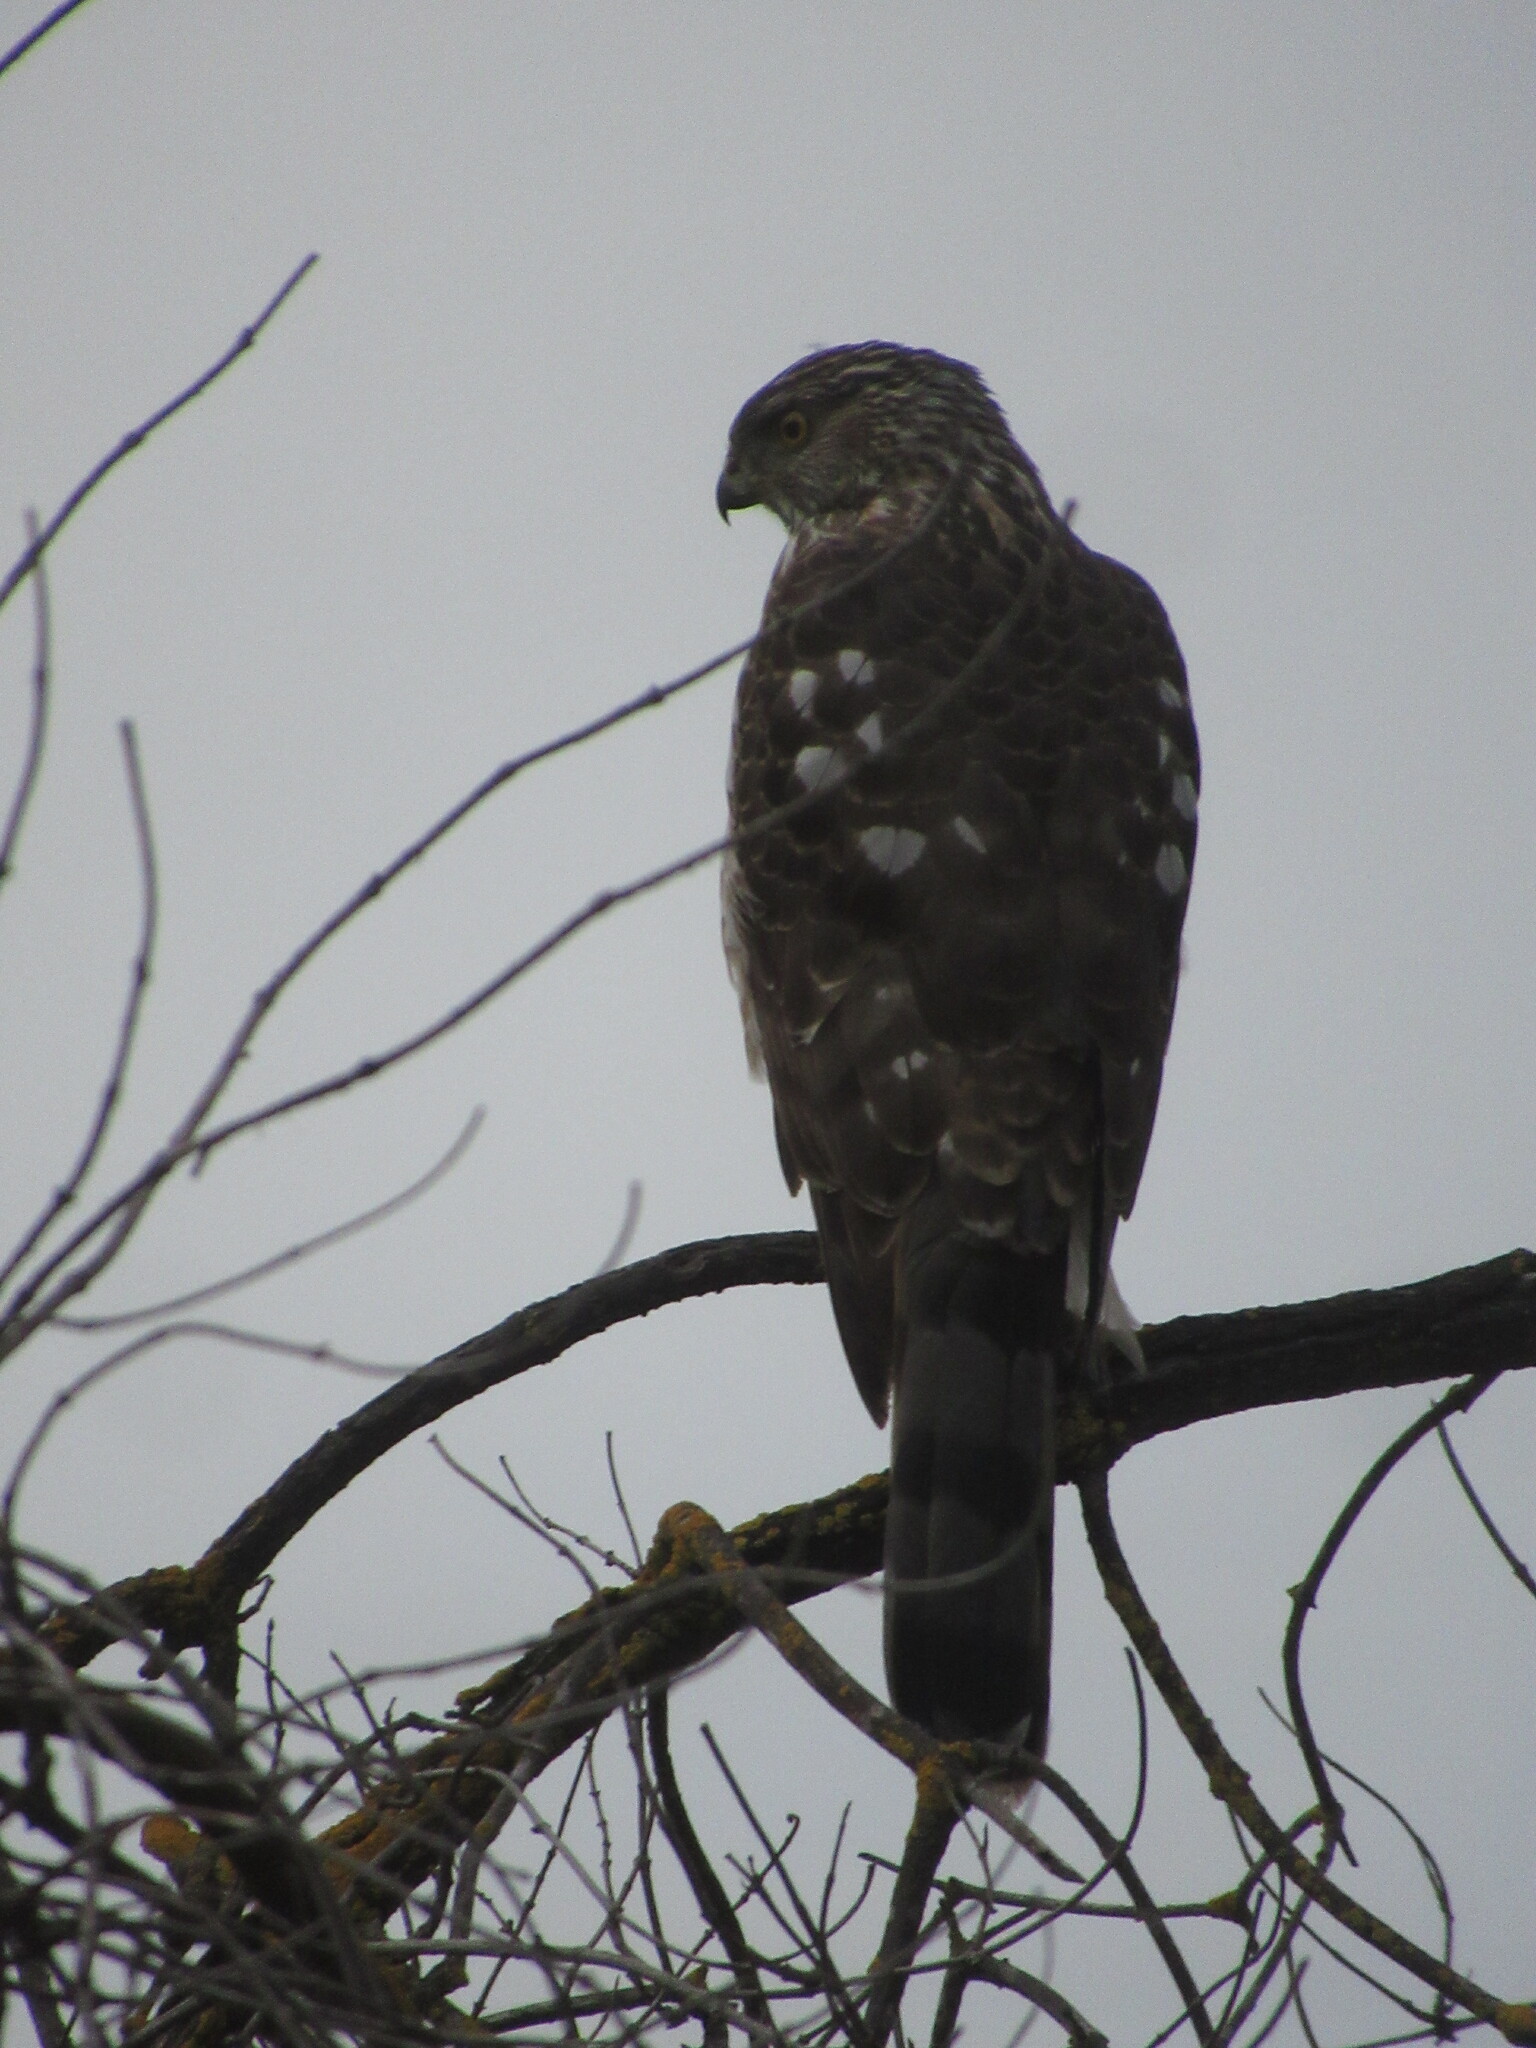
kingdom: Animalia
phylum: Chordata
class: Aves
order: Accipitriformes
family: Accipitridae
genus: Accipiter
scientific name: Accipiter cooperii
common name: Cooper's hawk
